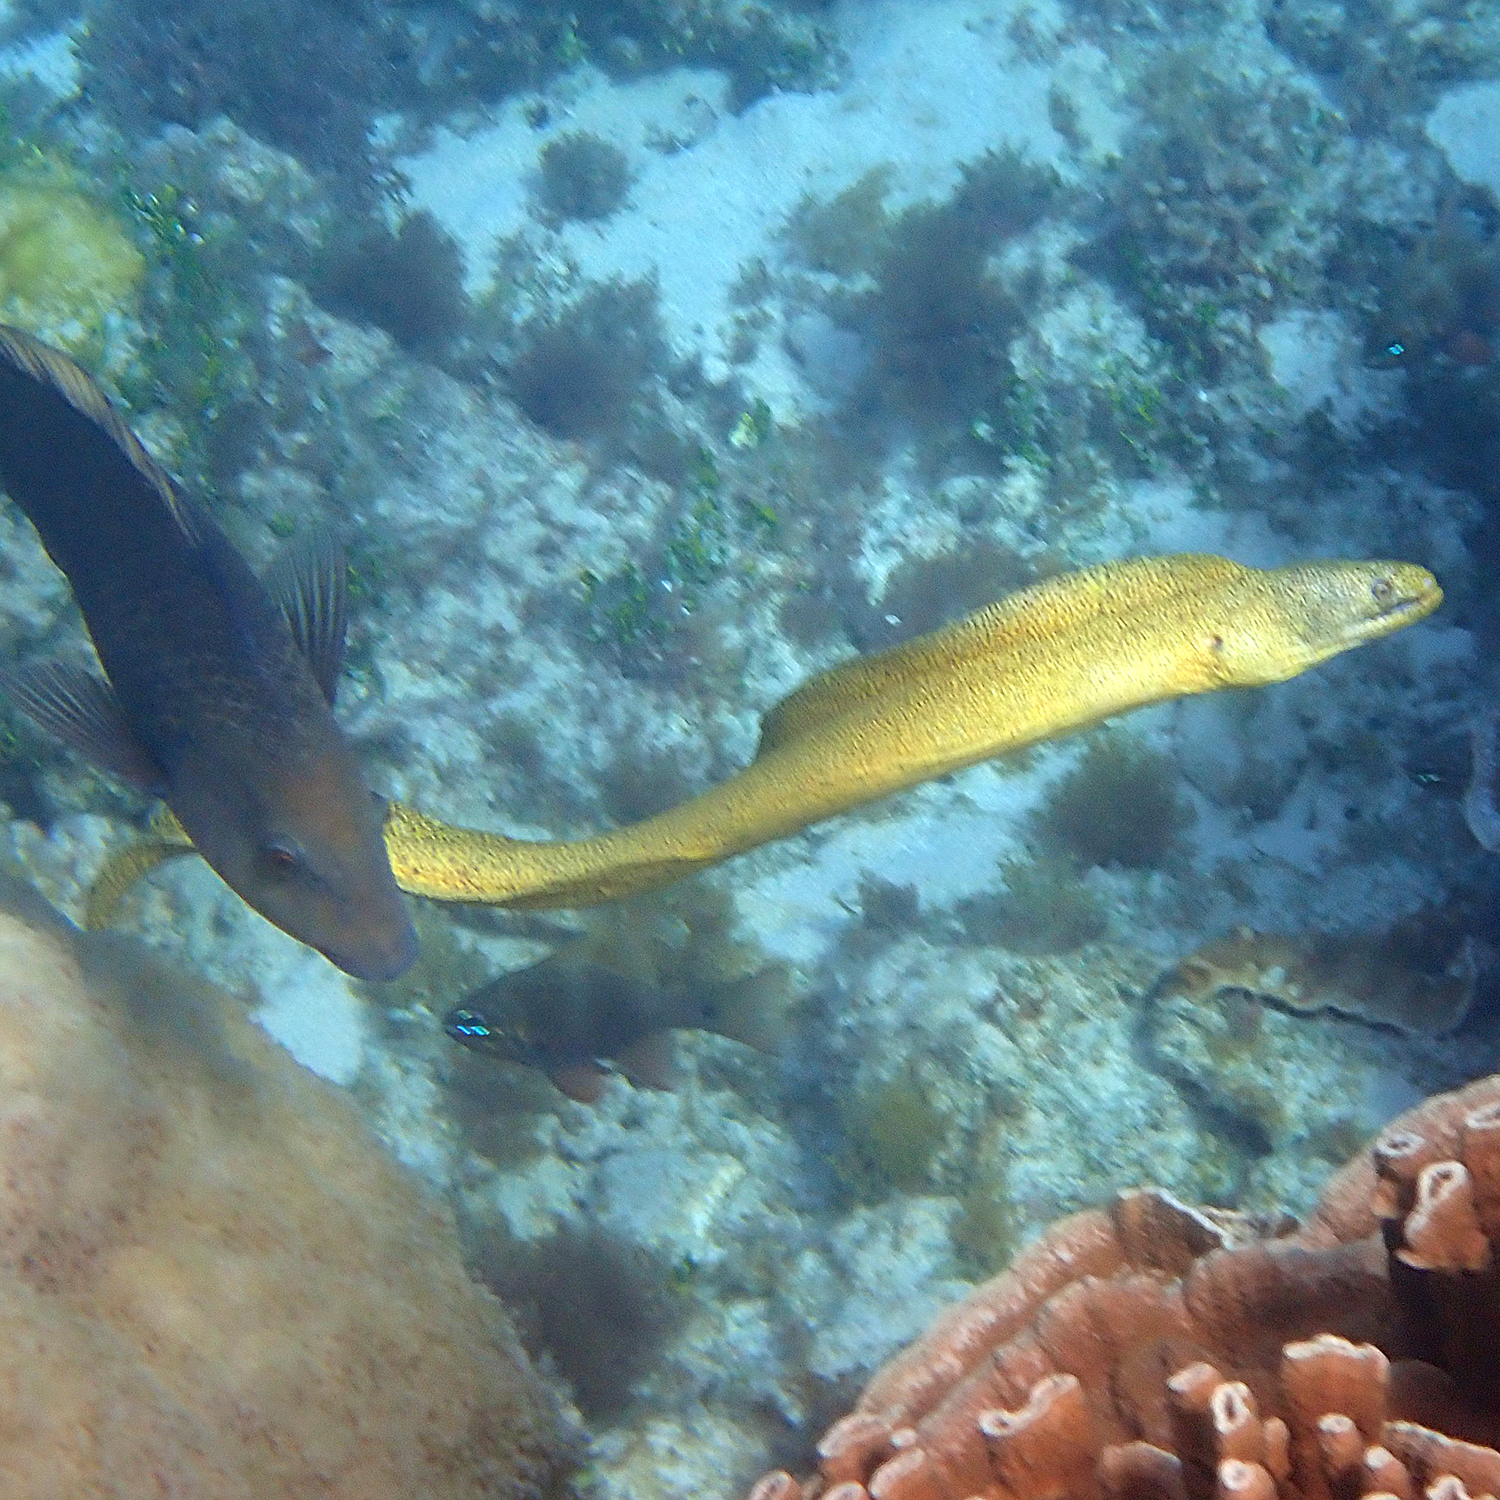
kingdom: Animalia
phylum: Chordata
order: Anguilliformes
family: Muraenidae
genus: Gymnothorax
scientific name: Gymnothorax eurostus
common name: Stout moray
